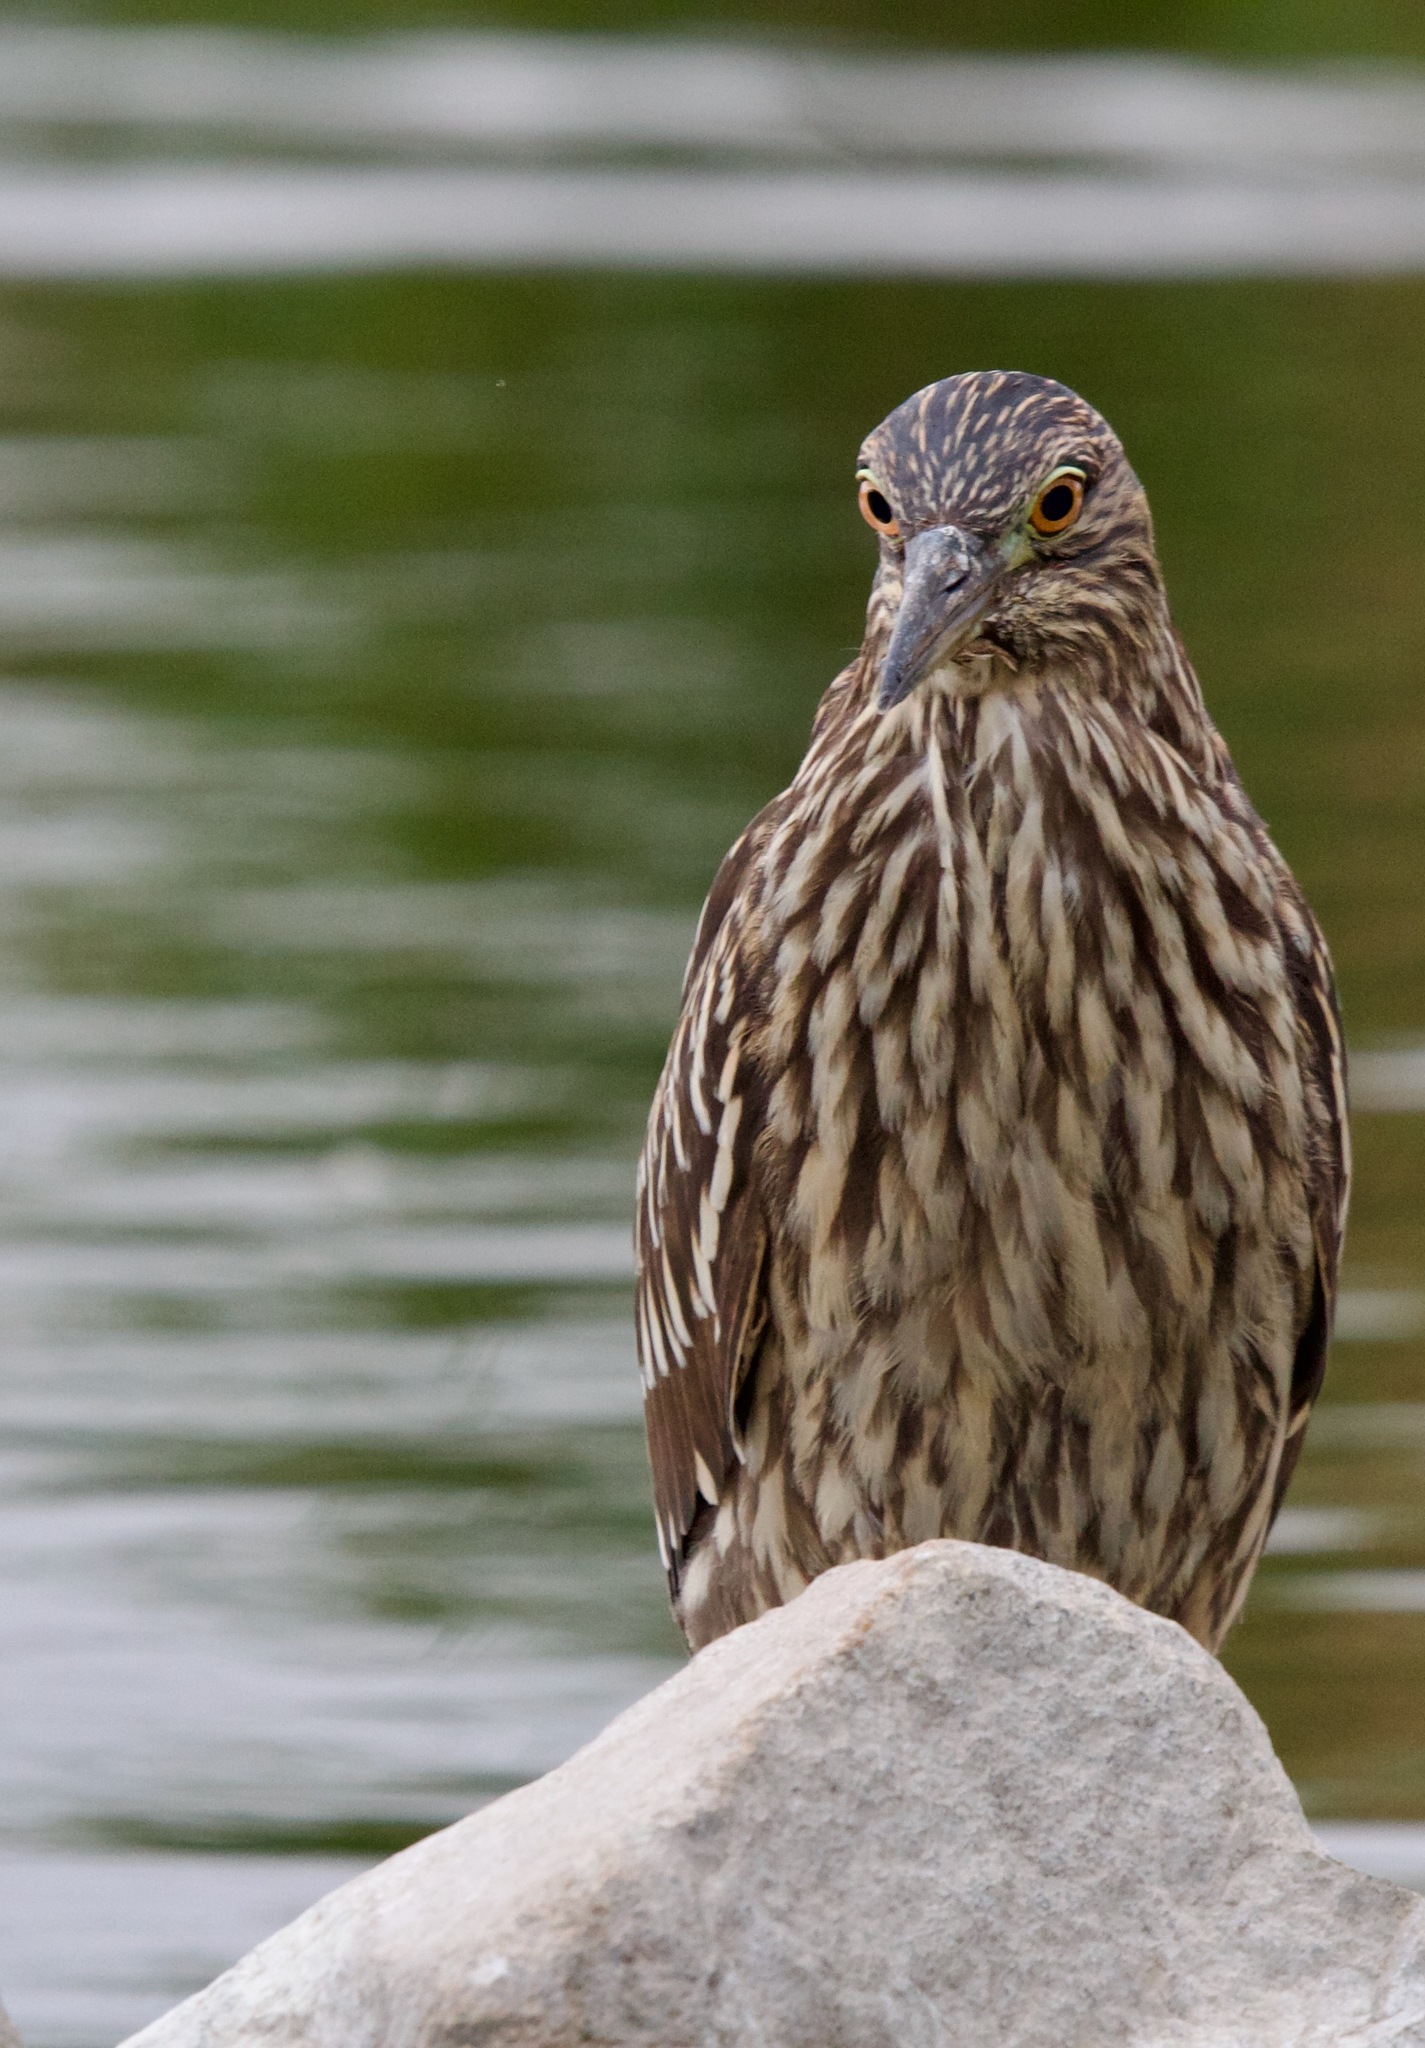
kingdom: Animalia
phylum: Chordata
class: Aves
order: Pelecaniformes
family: Ardeidae
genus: Nycticorax
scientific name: Nycticorax nycticorax
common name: Black-crowned night heron
